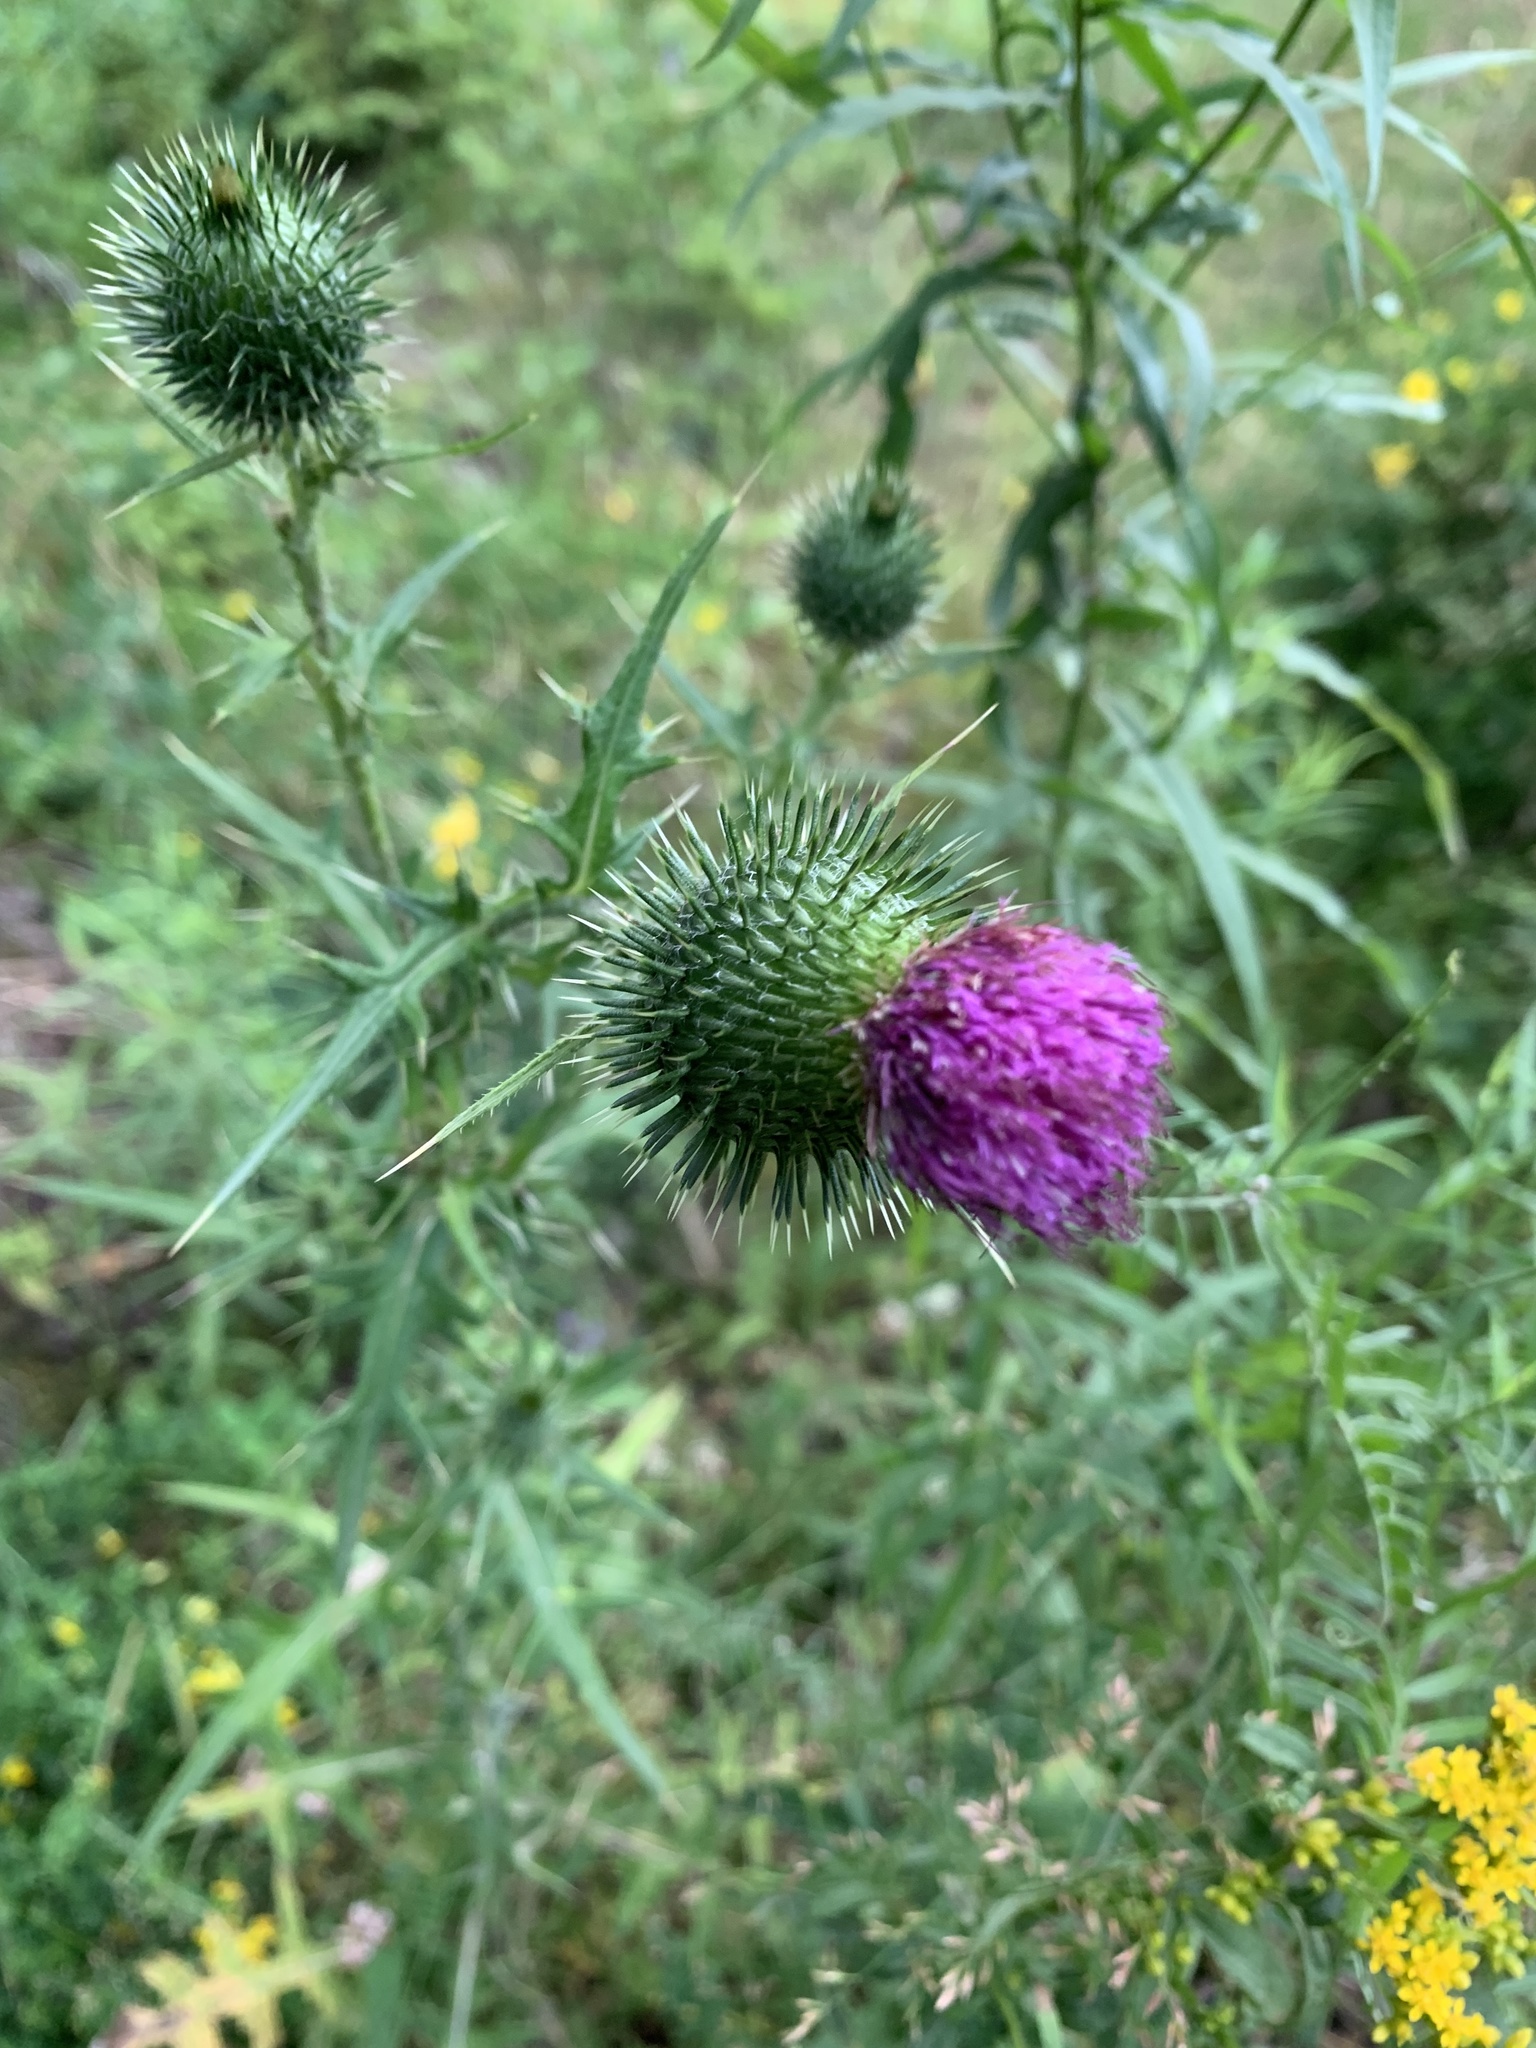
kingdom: Plantae
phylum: Tracheophyta
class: Magnoliopsida
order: Asterales
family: Asteraceae
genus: Cirsium
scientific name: Cirsium vulgare
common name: Bull thistle
